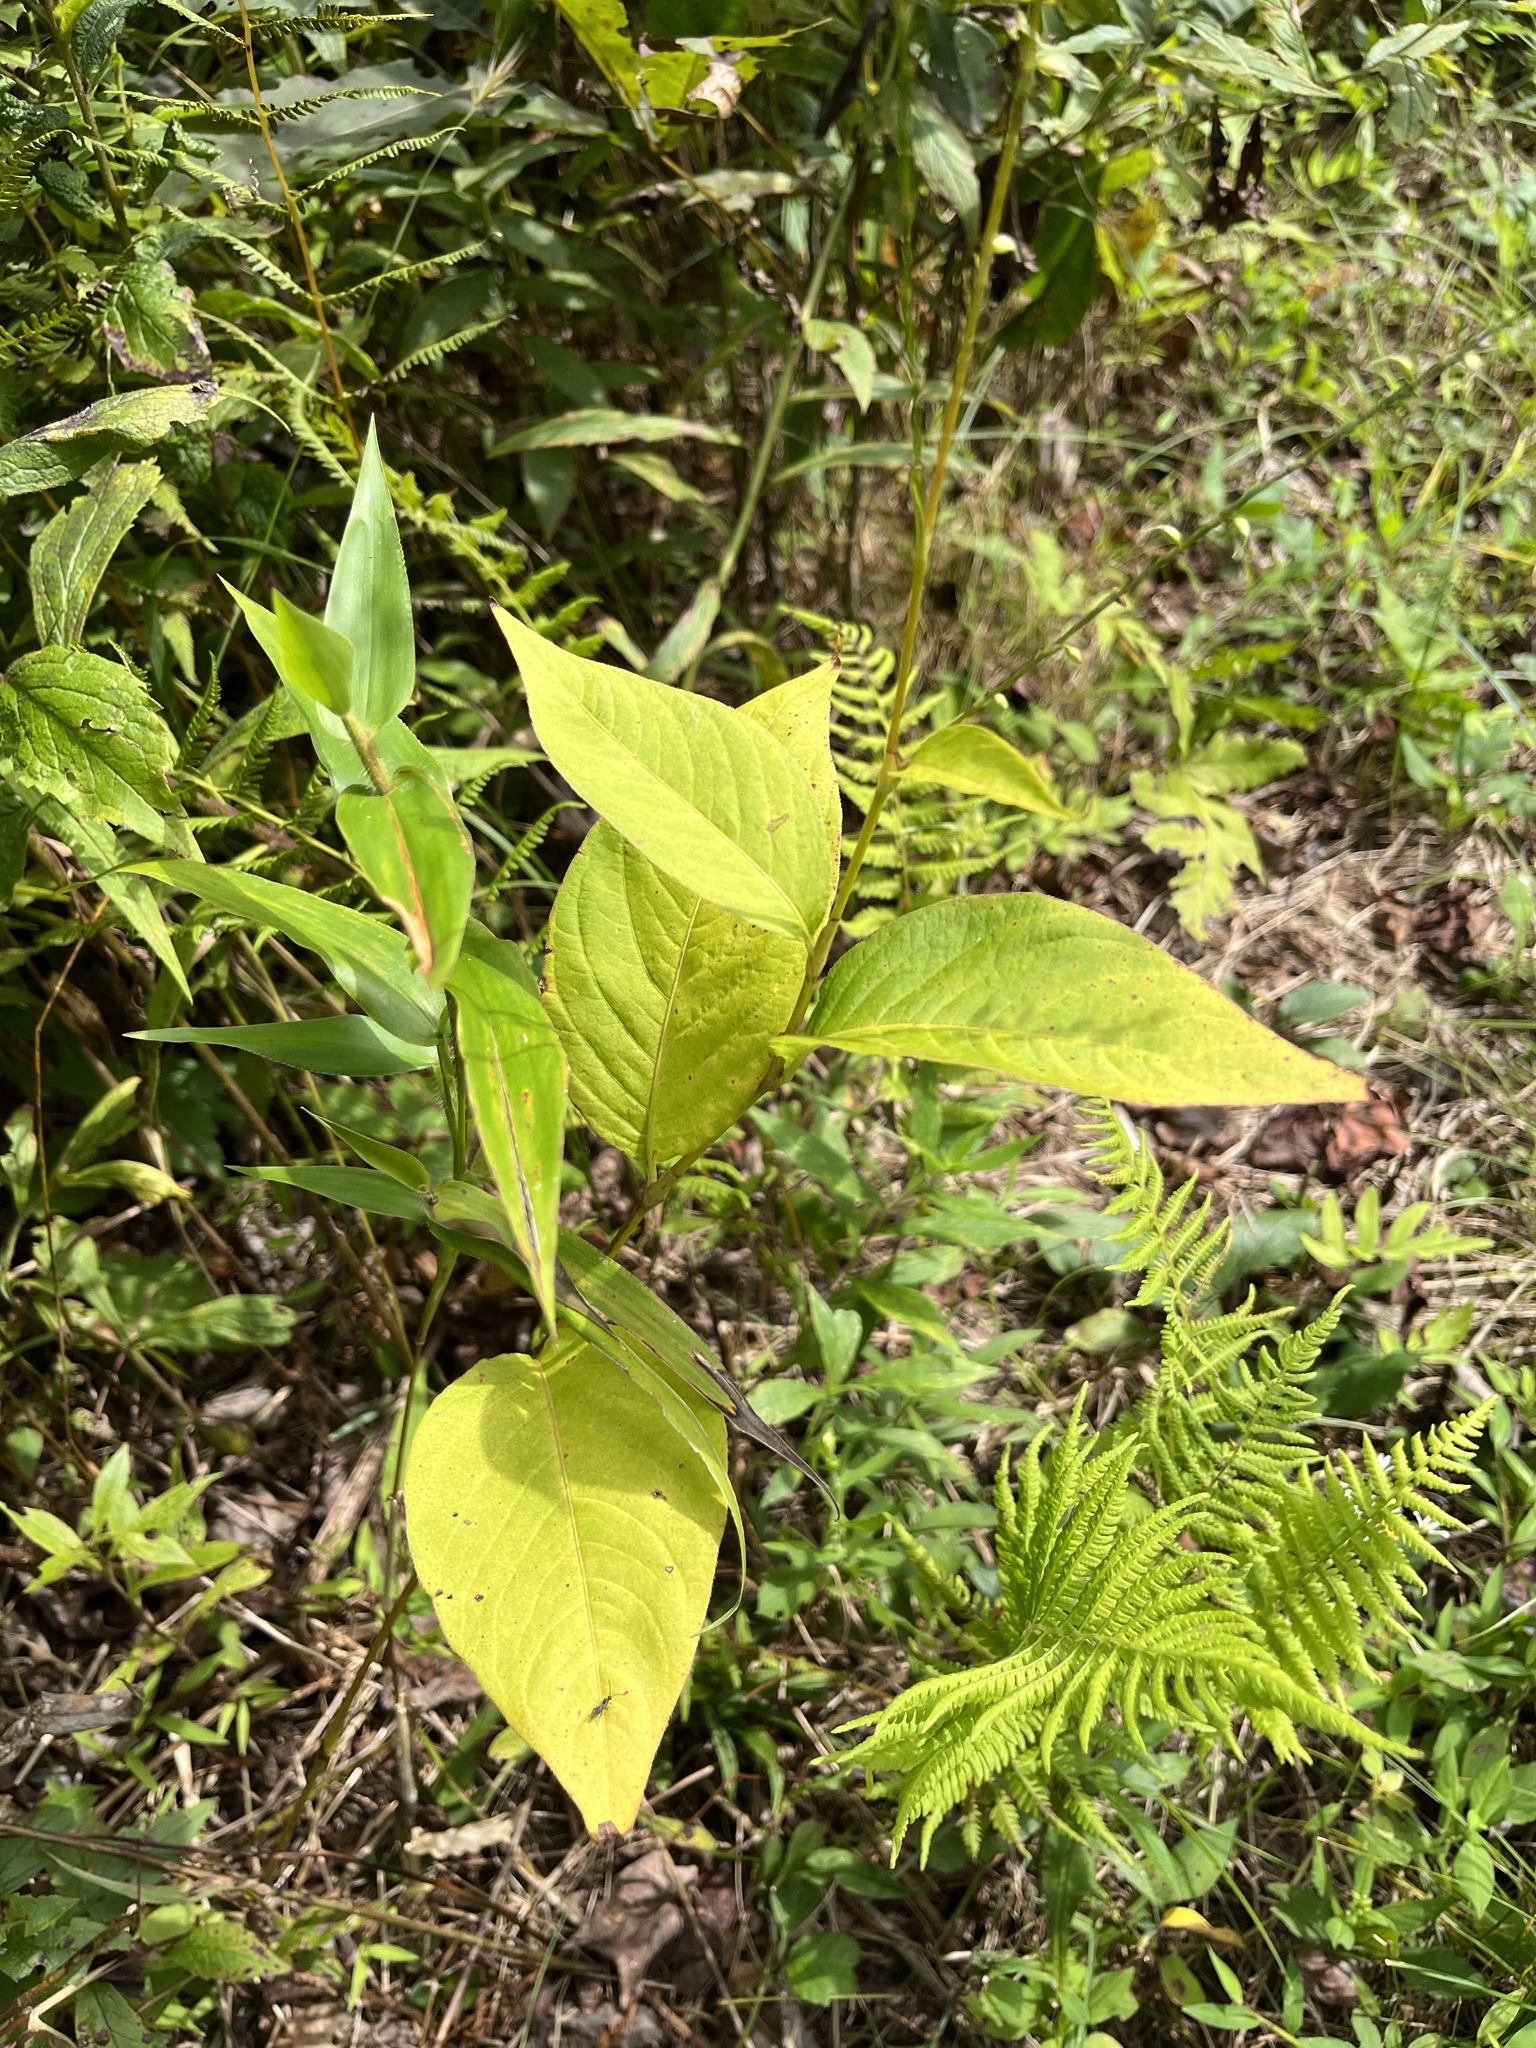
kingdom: Plantae
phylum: Tracheophyta
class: Magnoliopsida
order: Caryophyllales
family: Polygonaceae
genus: Persicaria
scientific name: Persicaria virginiana
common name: Jumpseed
